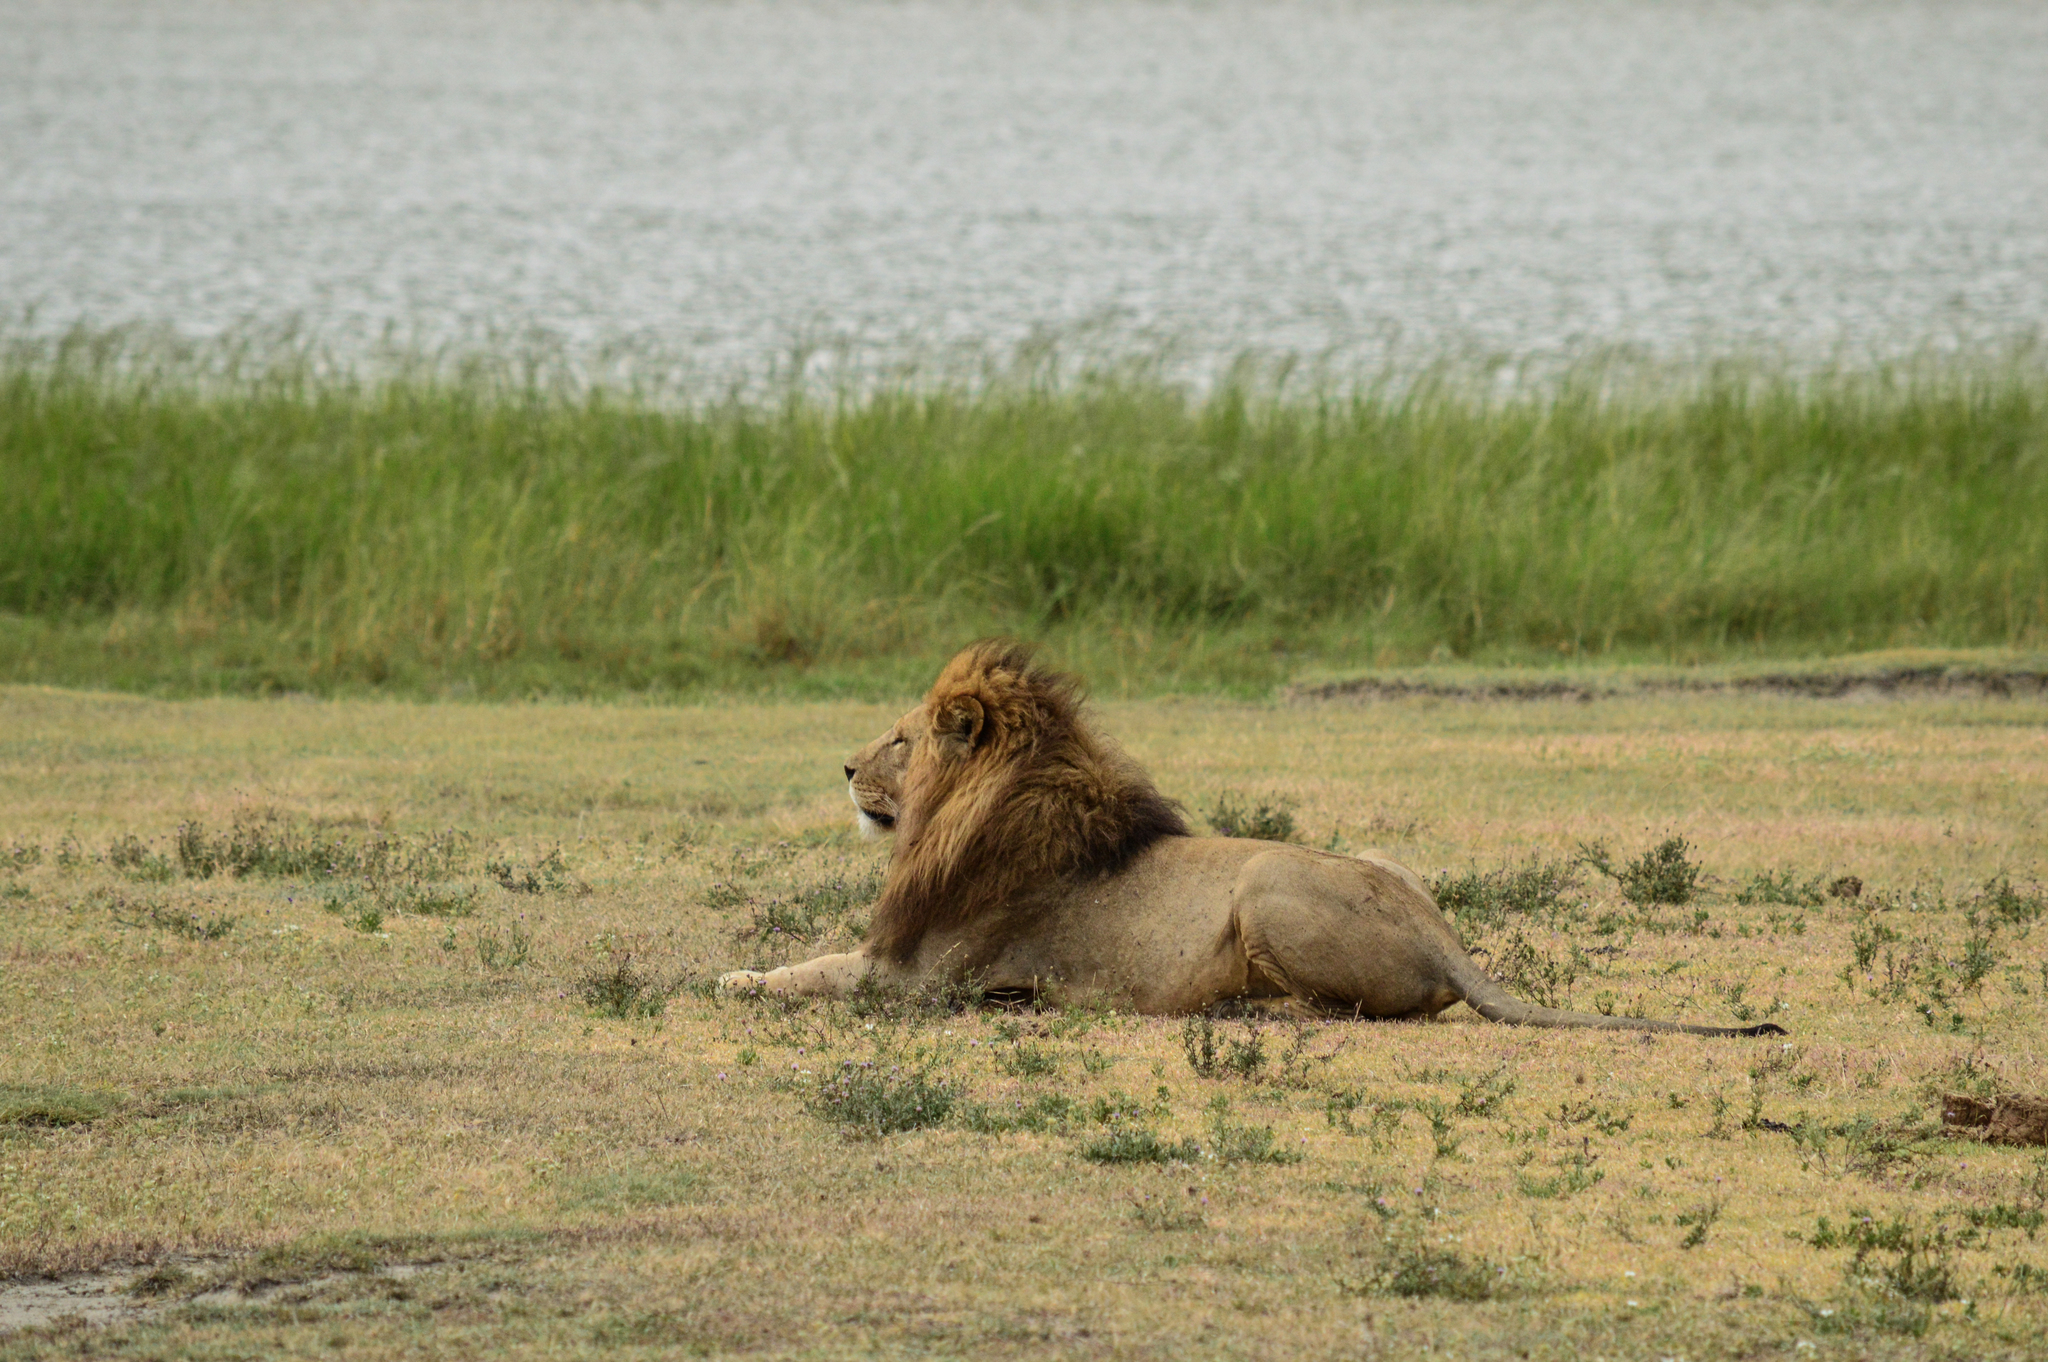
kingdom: Animalia
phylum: Chordata
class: Mammalia
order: Carnivora
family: Felidae
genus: Panthera
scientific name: Panthera leo
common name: Lion
